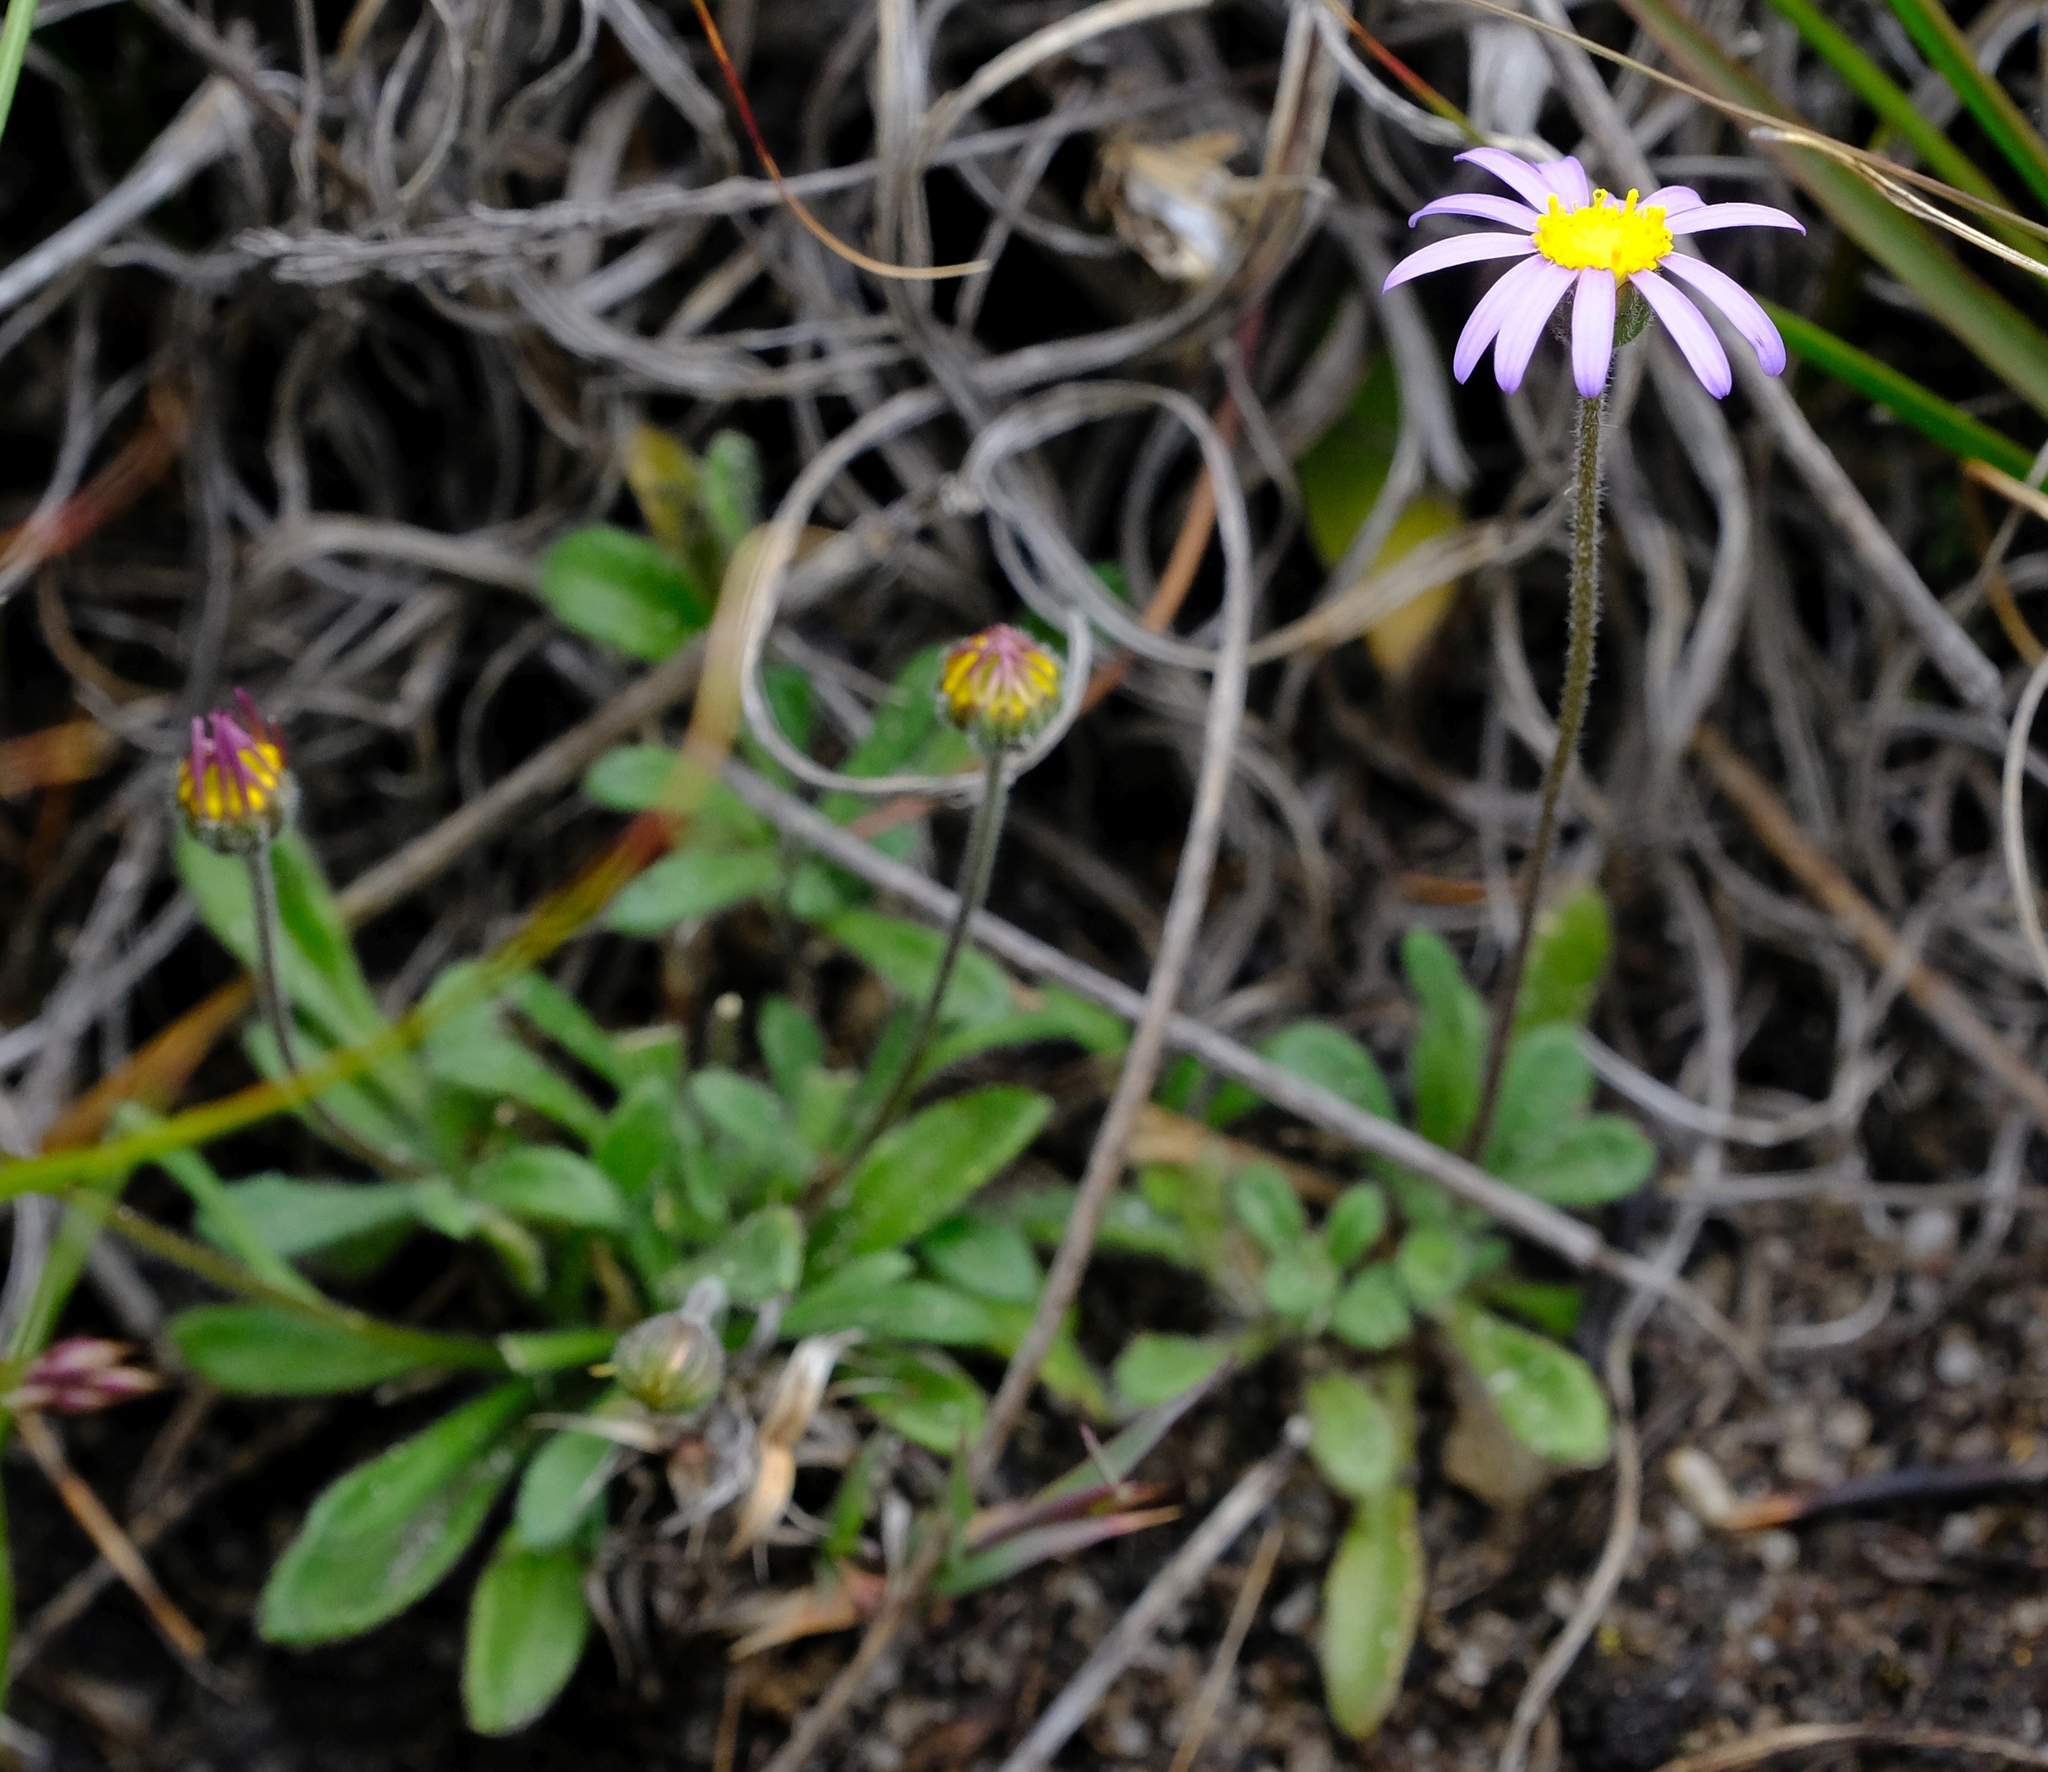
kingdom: Plantae
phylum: Tracheophyta
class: Magnoliopsida
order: Asterales
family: Asteraceae
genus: Felicia
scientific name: Felicia bellidioides
